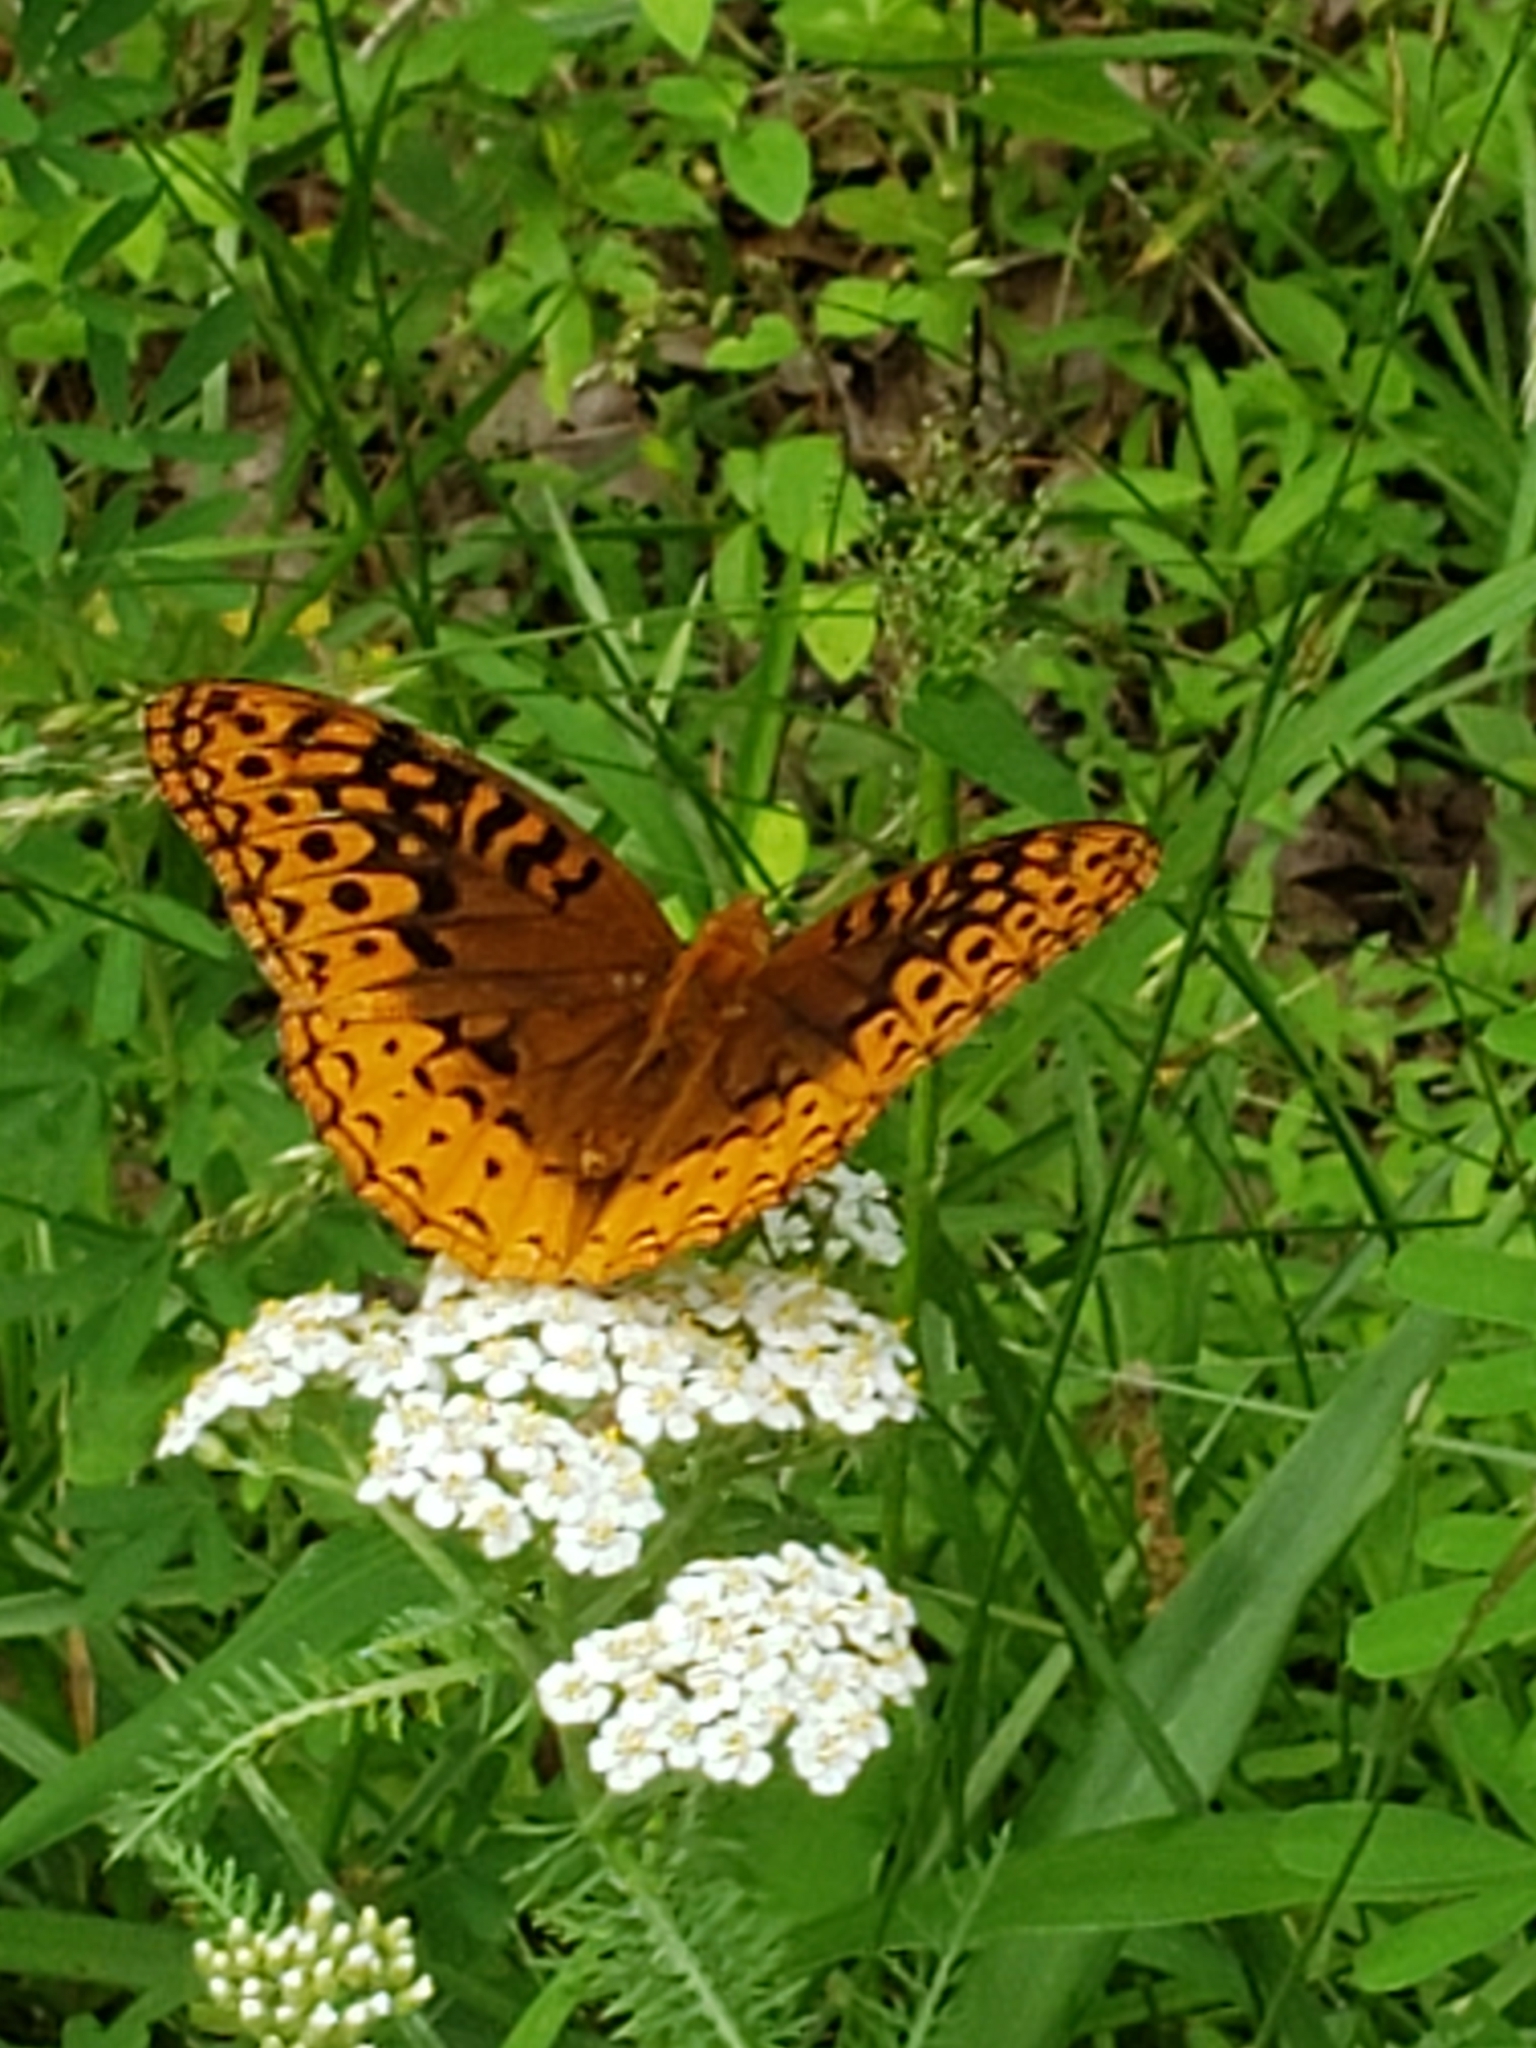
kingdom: Animalia
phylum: Arthropoda
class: Insecta
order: Lepidoptera
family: Nymphalidae
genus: Speyeria
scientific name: Speyeria cybele
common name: Great spangled fritillary
